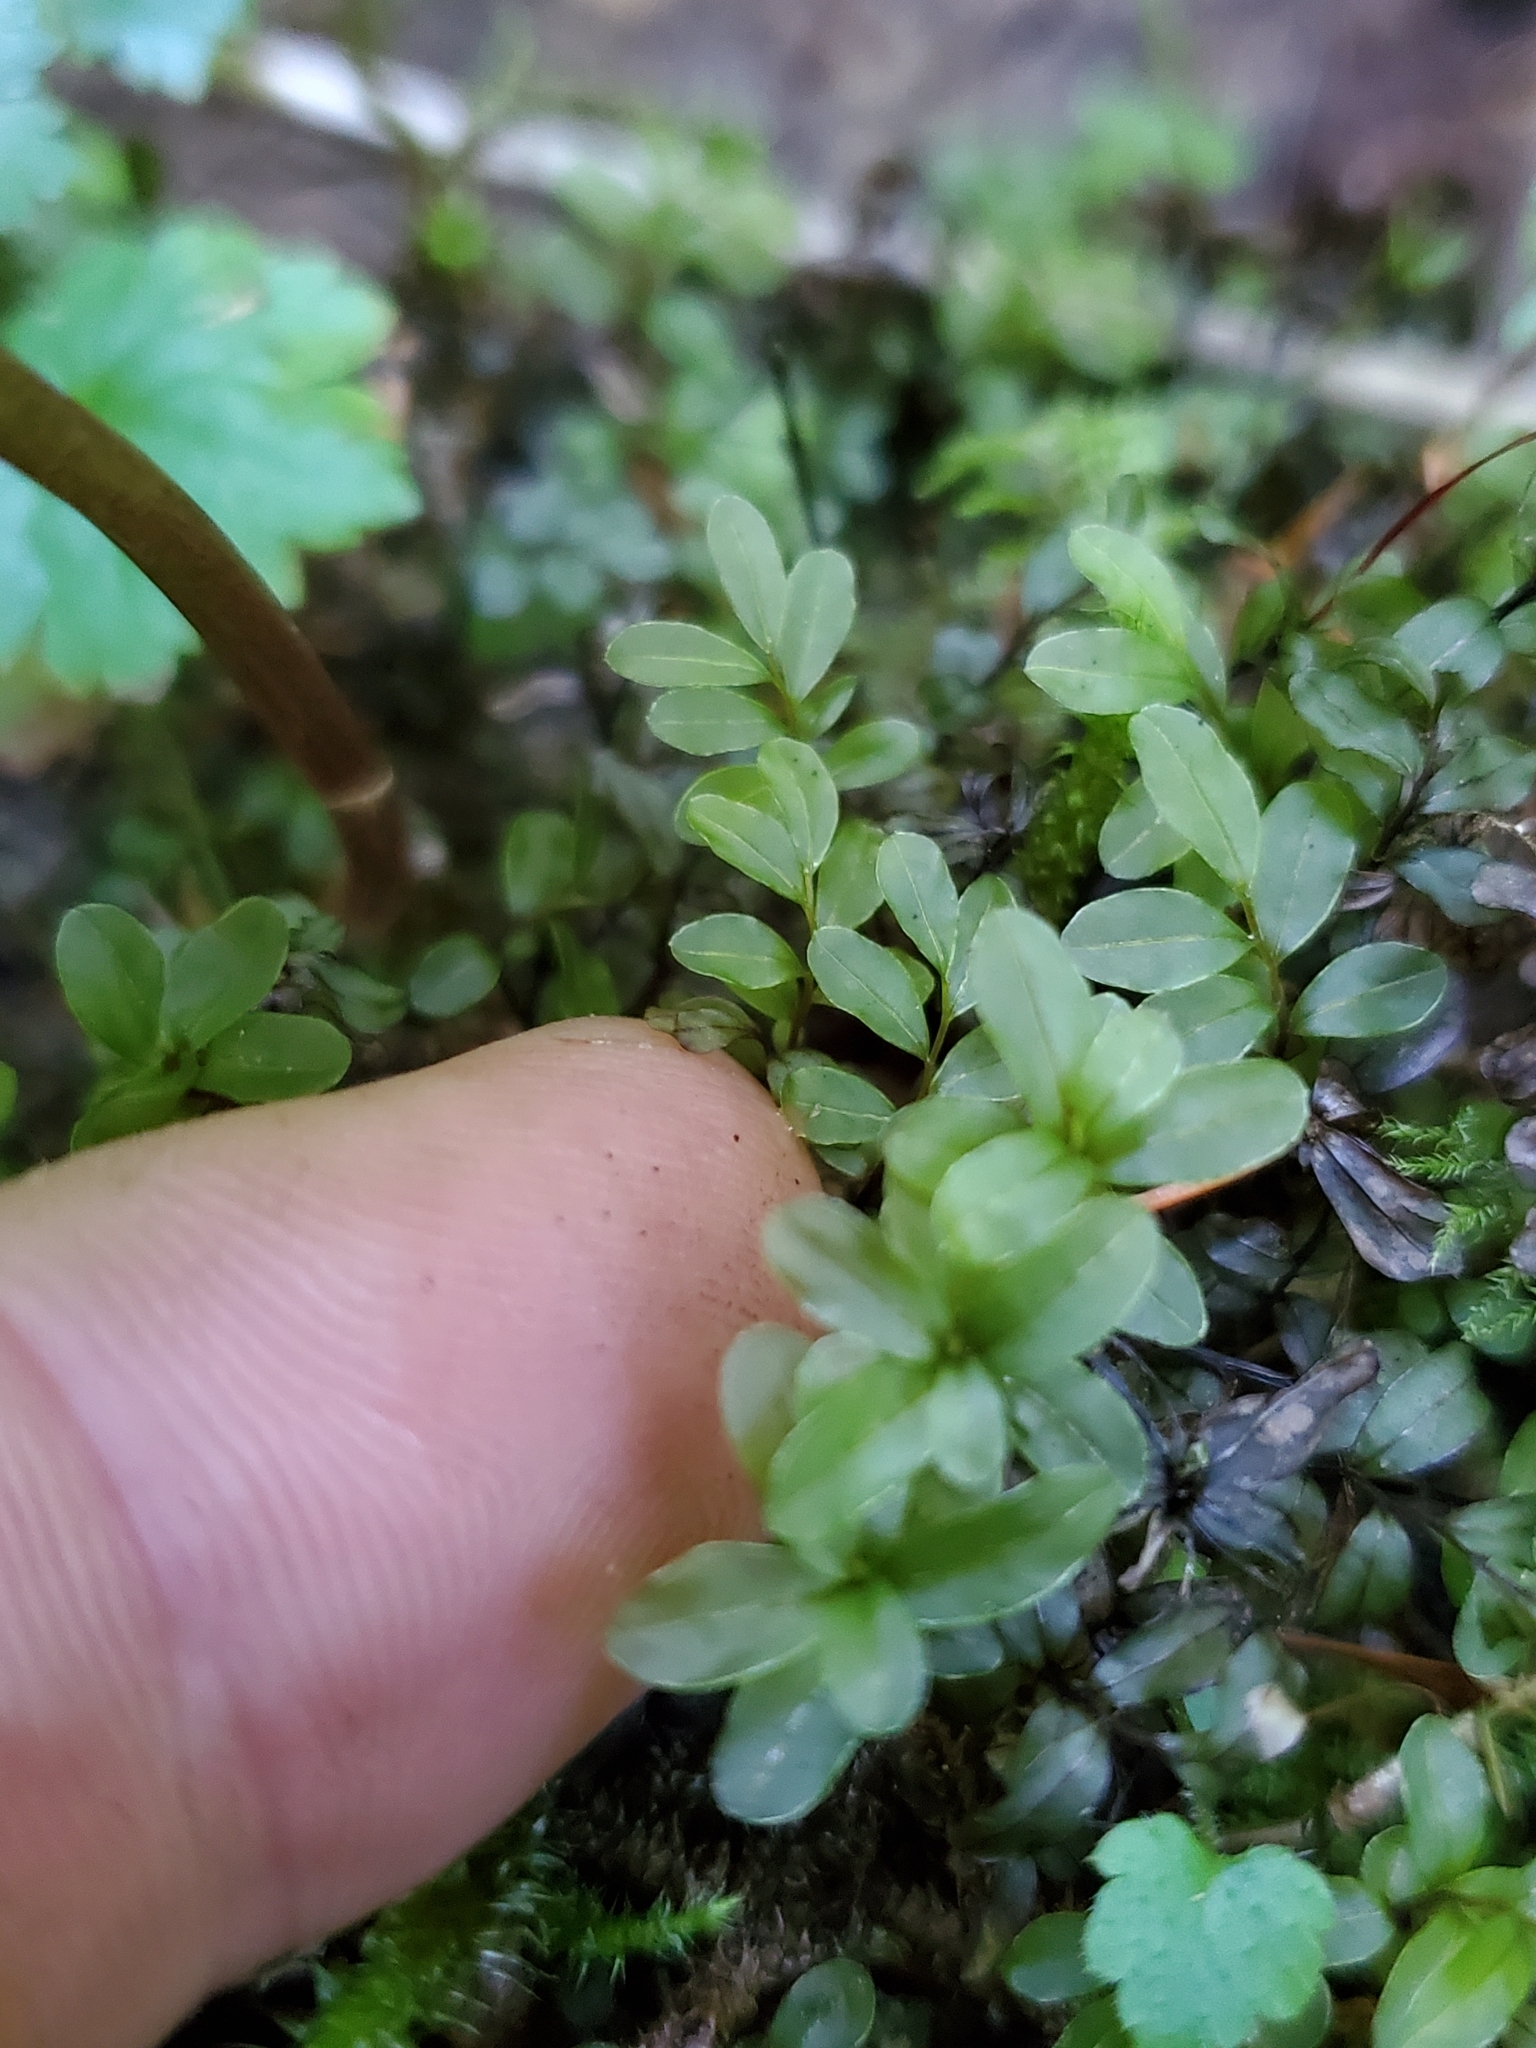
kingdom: Plantae
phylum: Bryophyta
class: Bryopsida
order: Bryales
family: Mniaceae
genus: Rhizomnium
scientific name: Rhizomnium glabrescens
